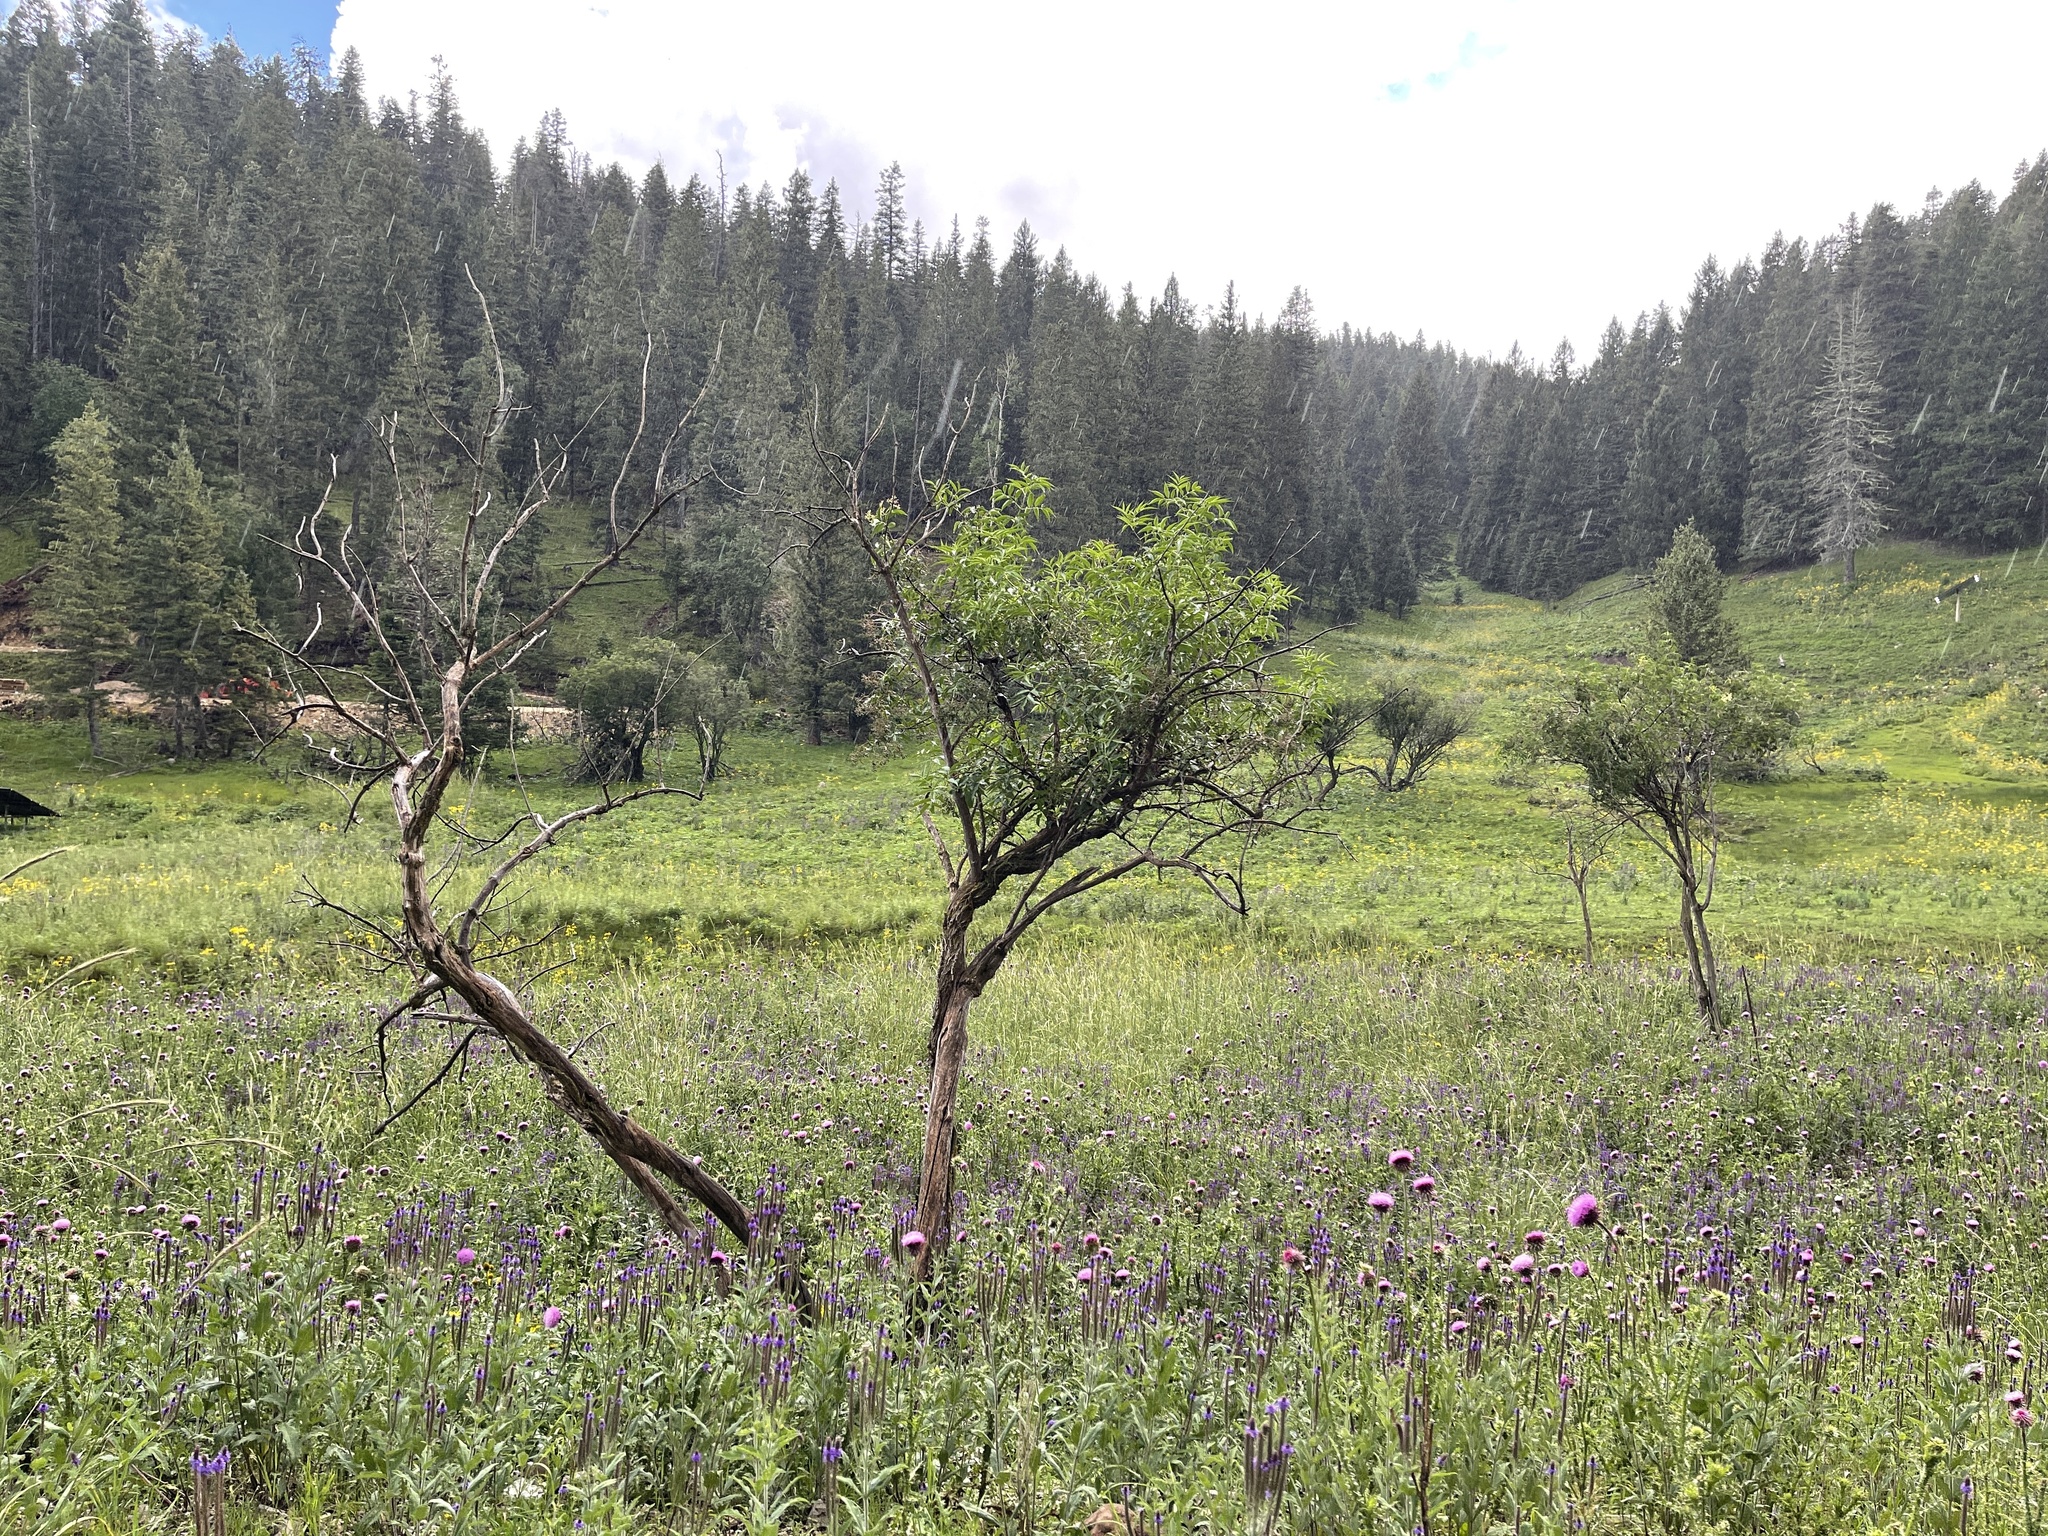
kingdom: Plantae
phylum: Tracheophyta
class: Magnoliopsida
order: Dipsacales
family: Viburnaceae
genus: Sambucus
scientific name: Sambucus cerulea
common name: Blue elder
